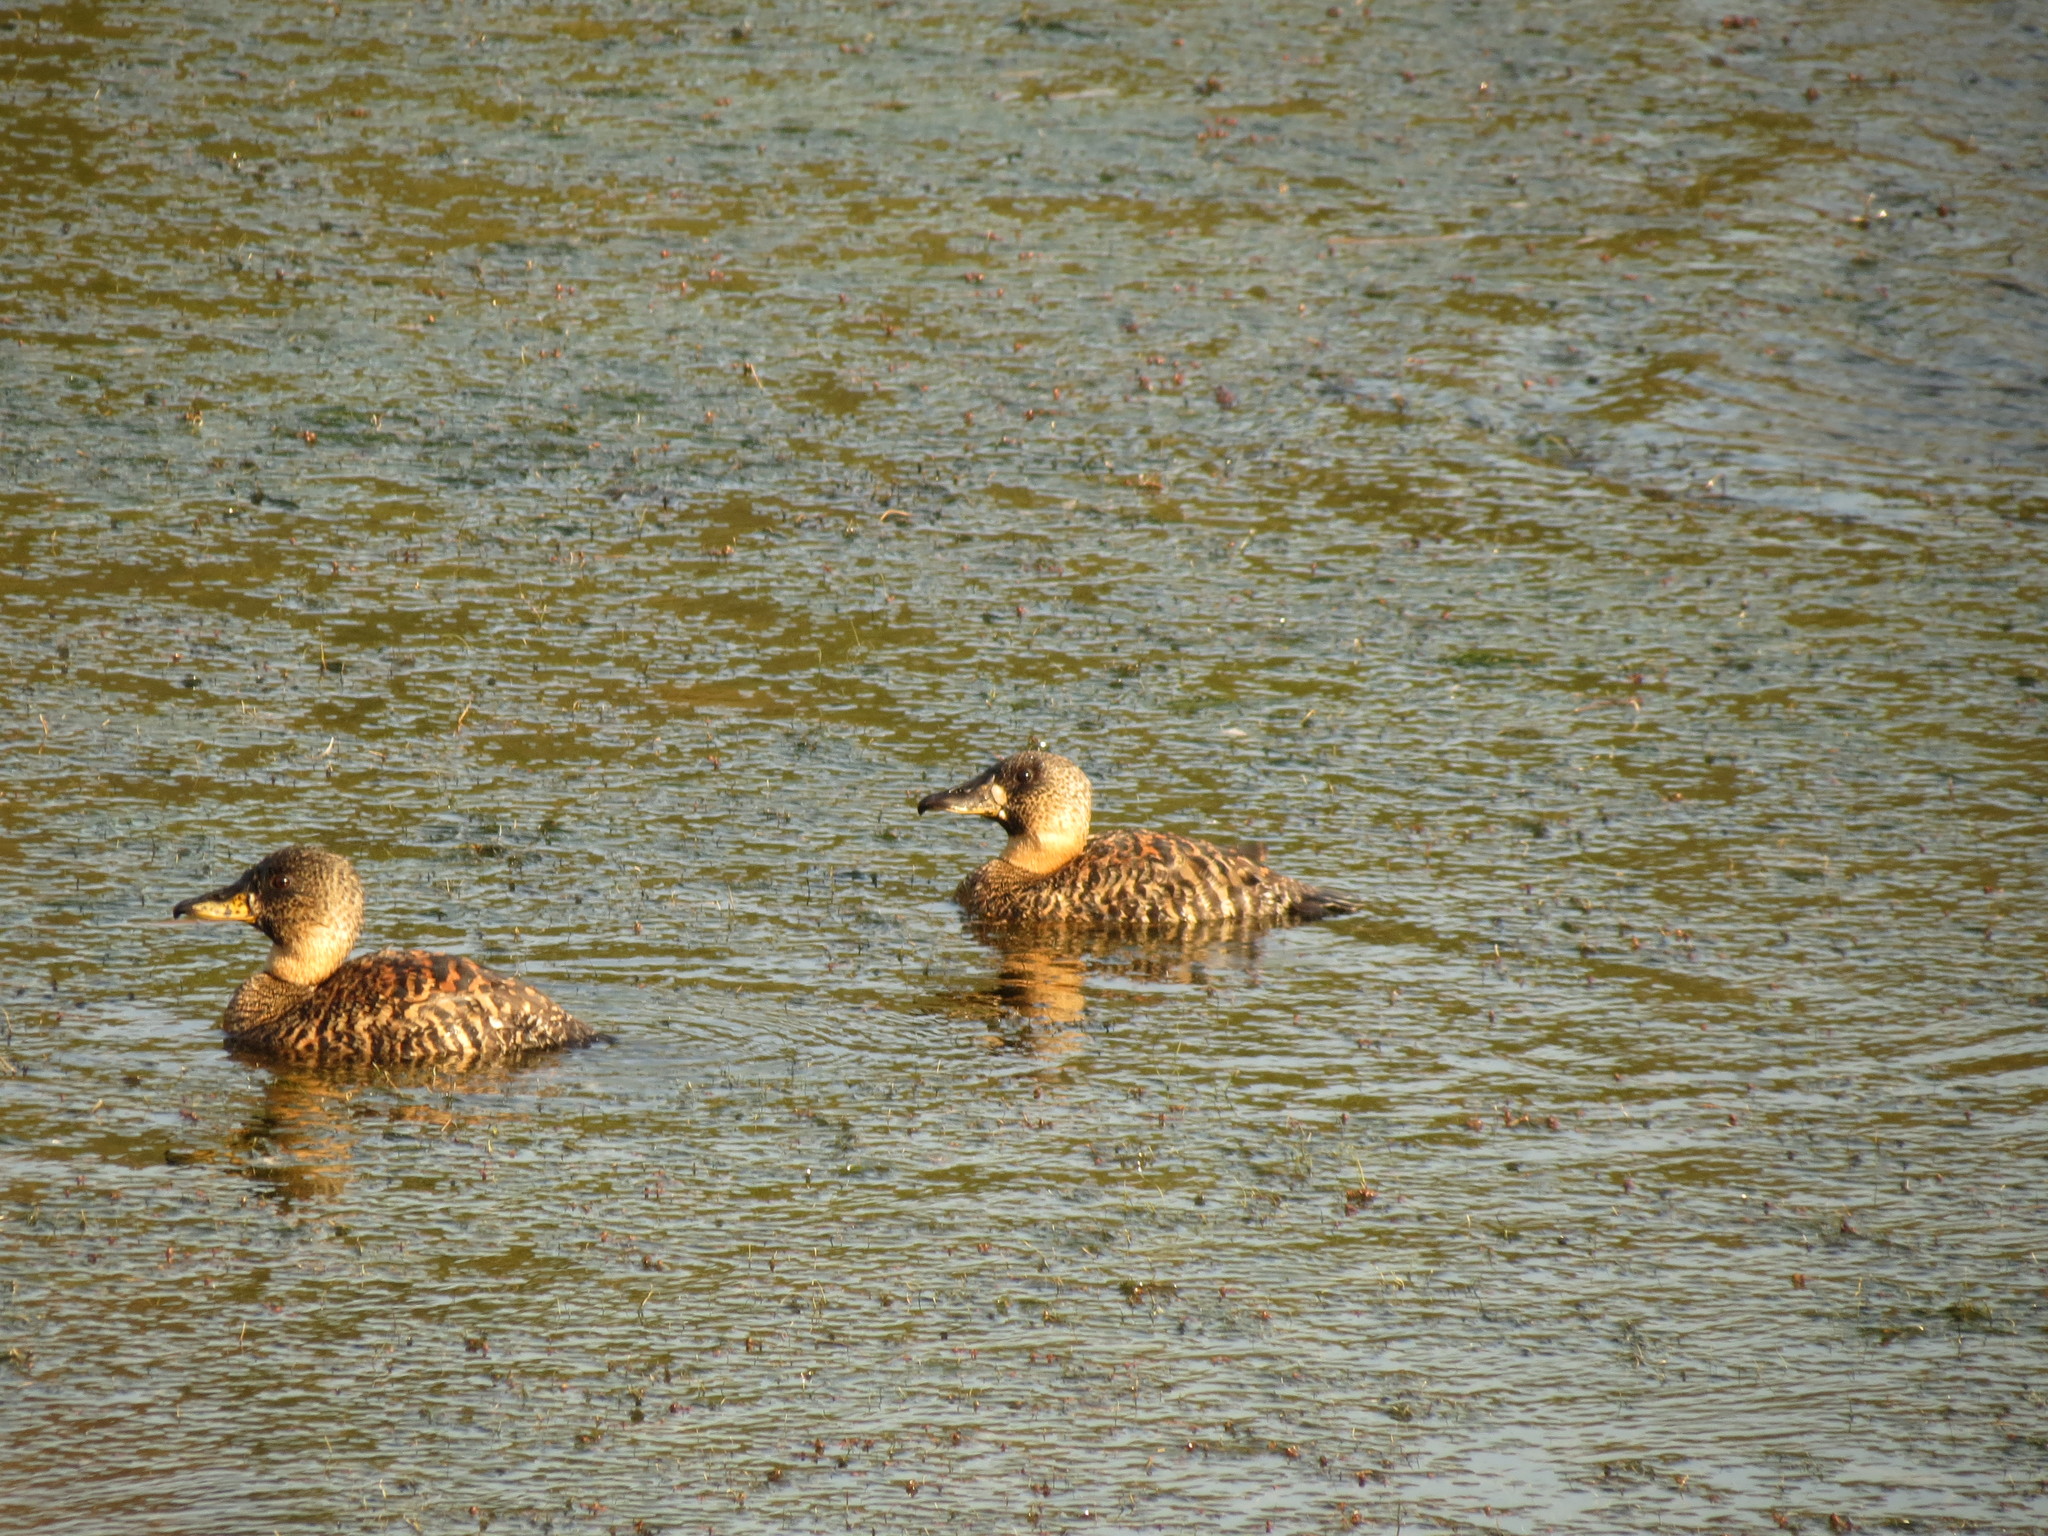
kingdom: Animalia
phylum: Chordata
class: Aves
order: Anseriformes
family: Anatidae
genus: Thalassornis
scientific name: Thalassornis leuconotus
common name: White-backed duck
